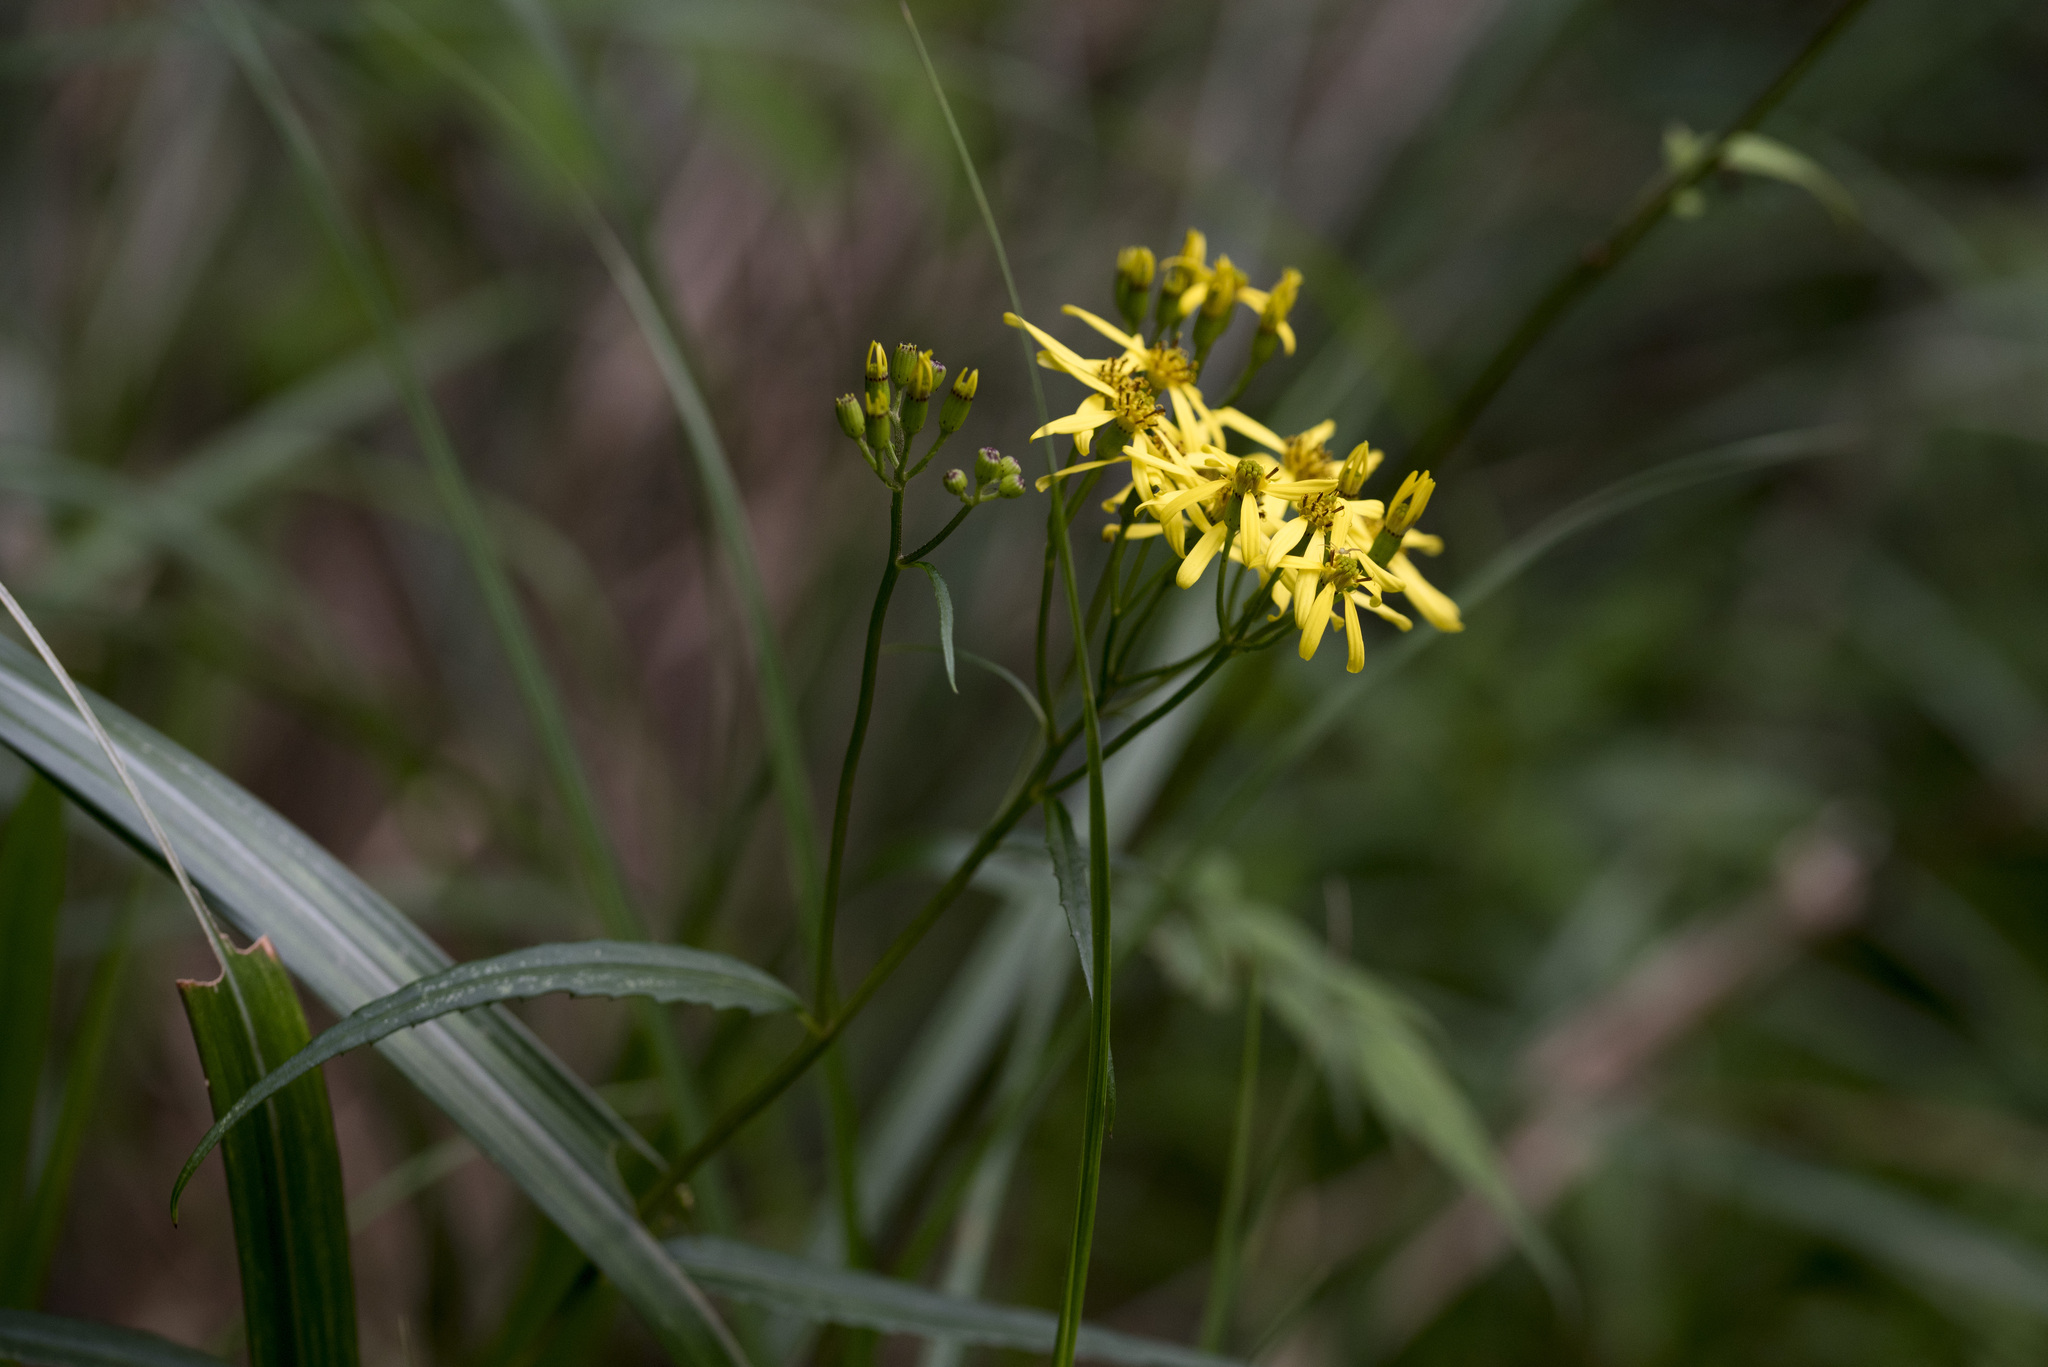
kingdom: Plantae
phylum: Tracheophyta
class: Magnoliopsida
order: Asterales
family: Asteraceae
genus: Jacobaea
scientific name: Jacobaea morrisonensis
